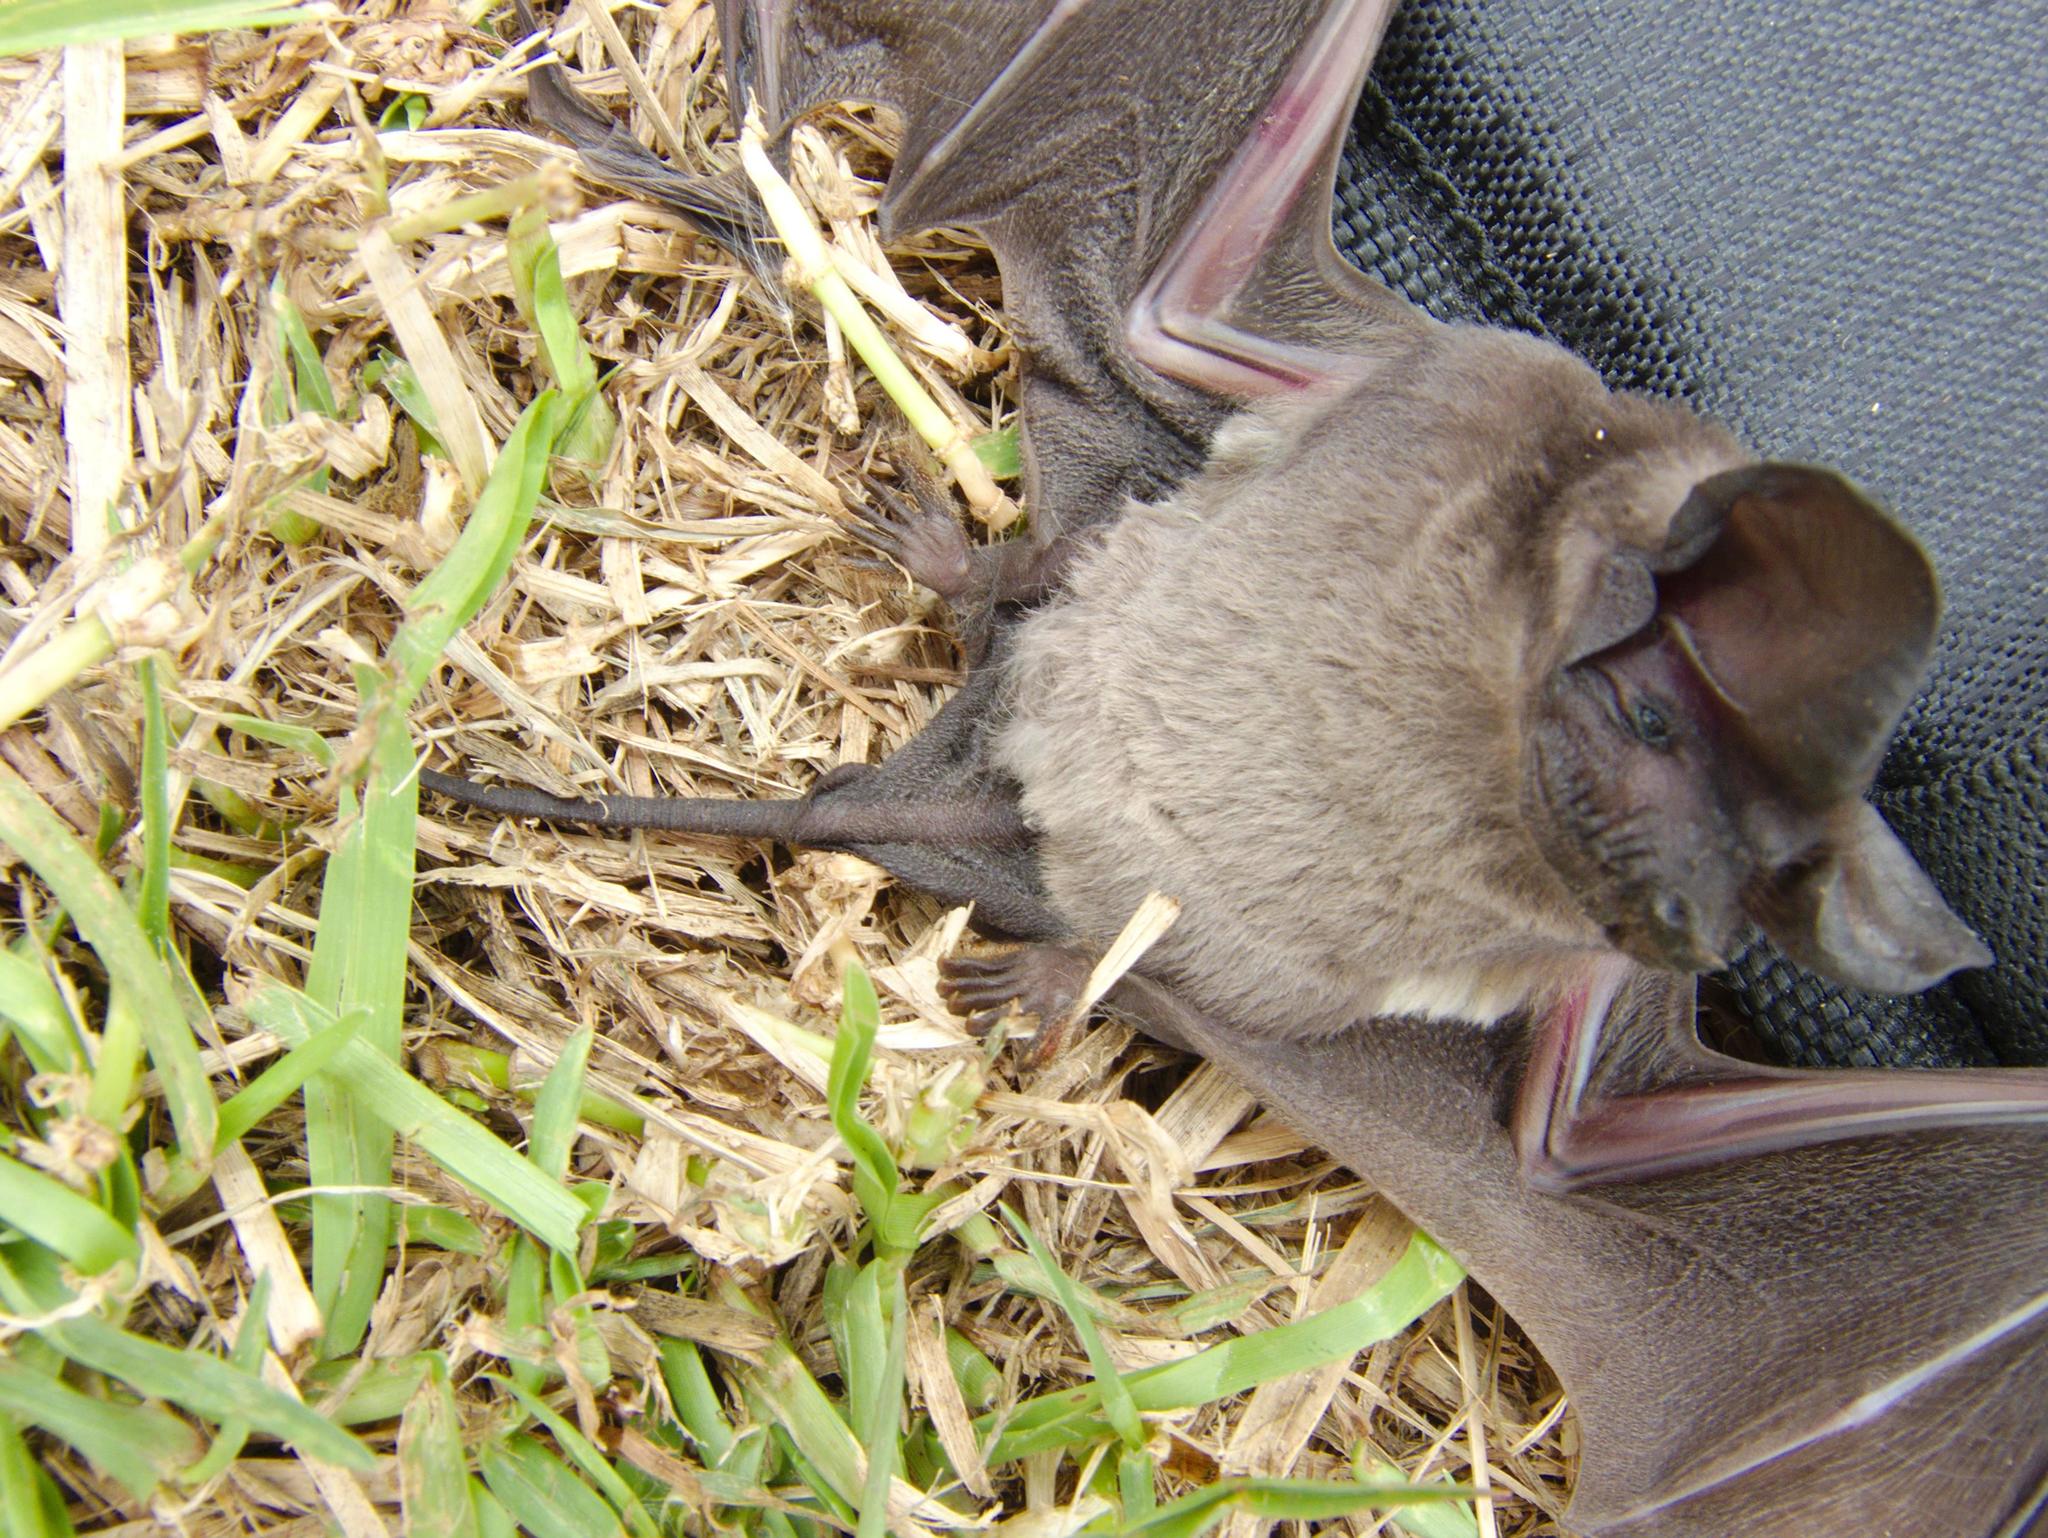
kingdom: Animalia
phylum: Chordata
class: Mammalia
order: Chiroptera
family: Molossidae
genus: Chaerephon
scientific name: Chaerephon pusillus
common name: Seychelles free-tailed bat
